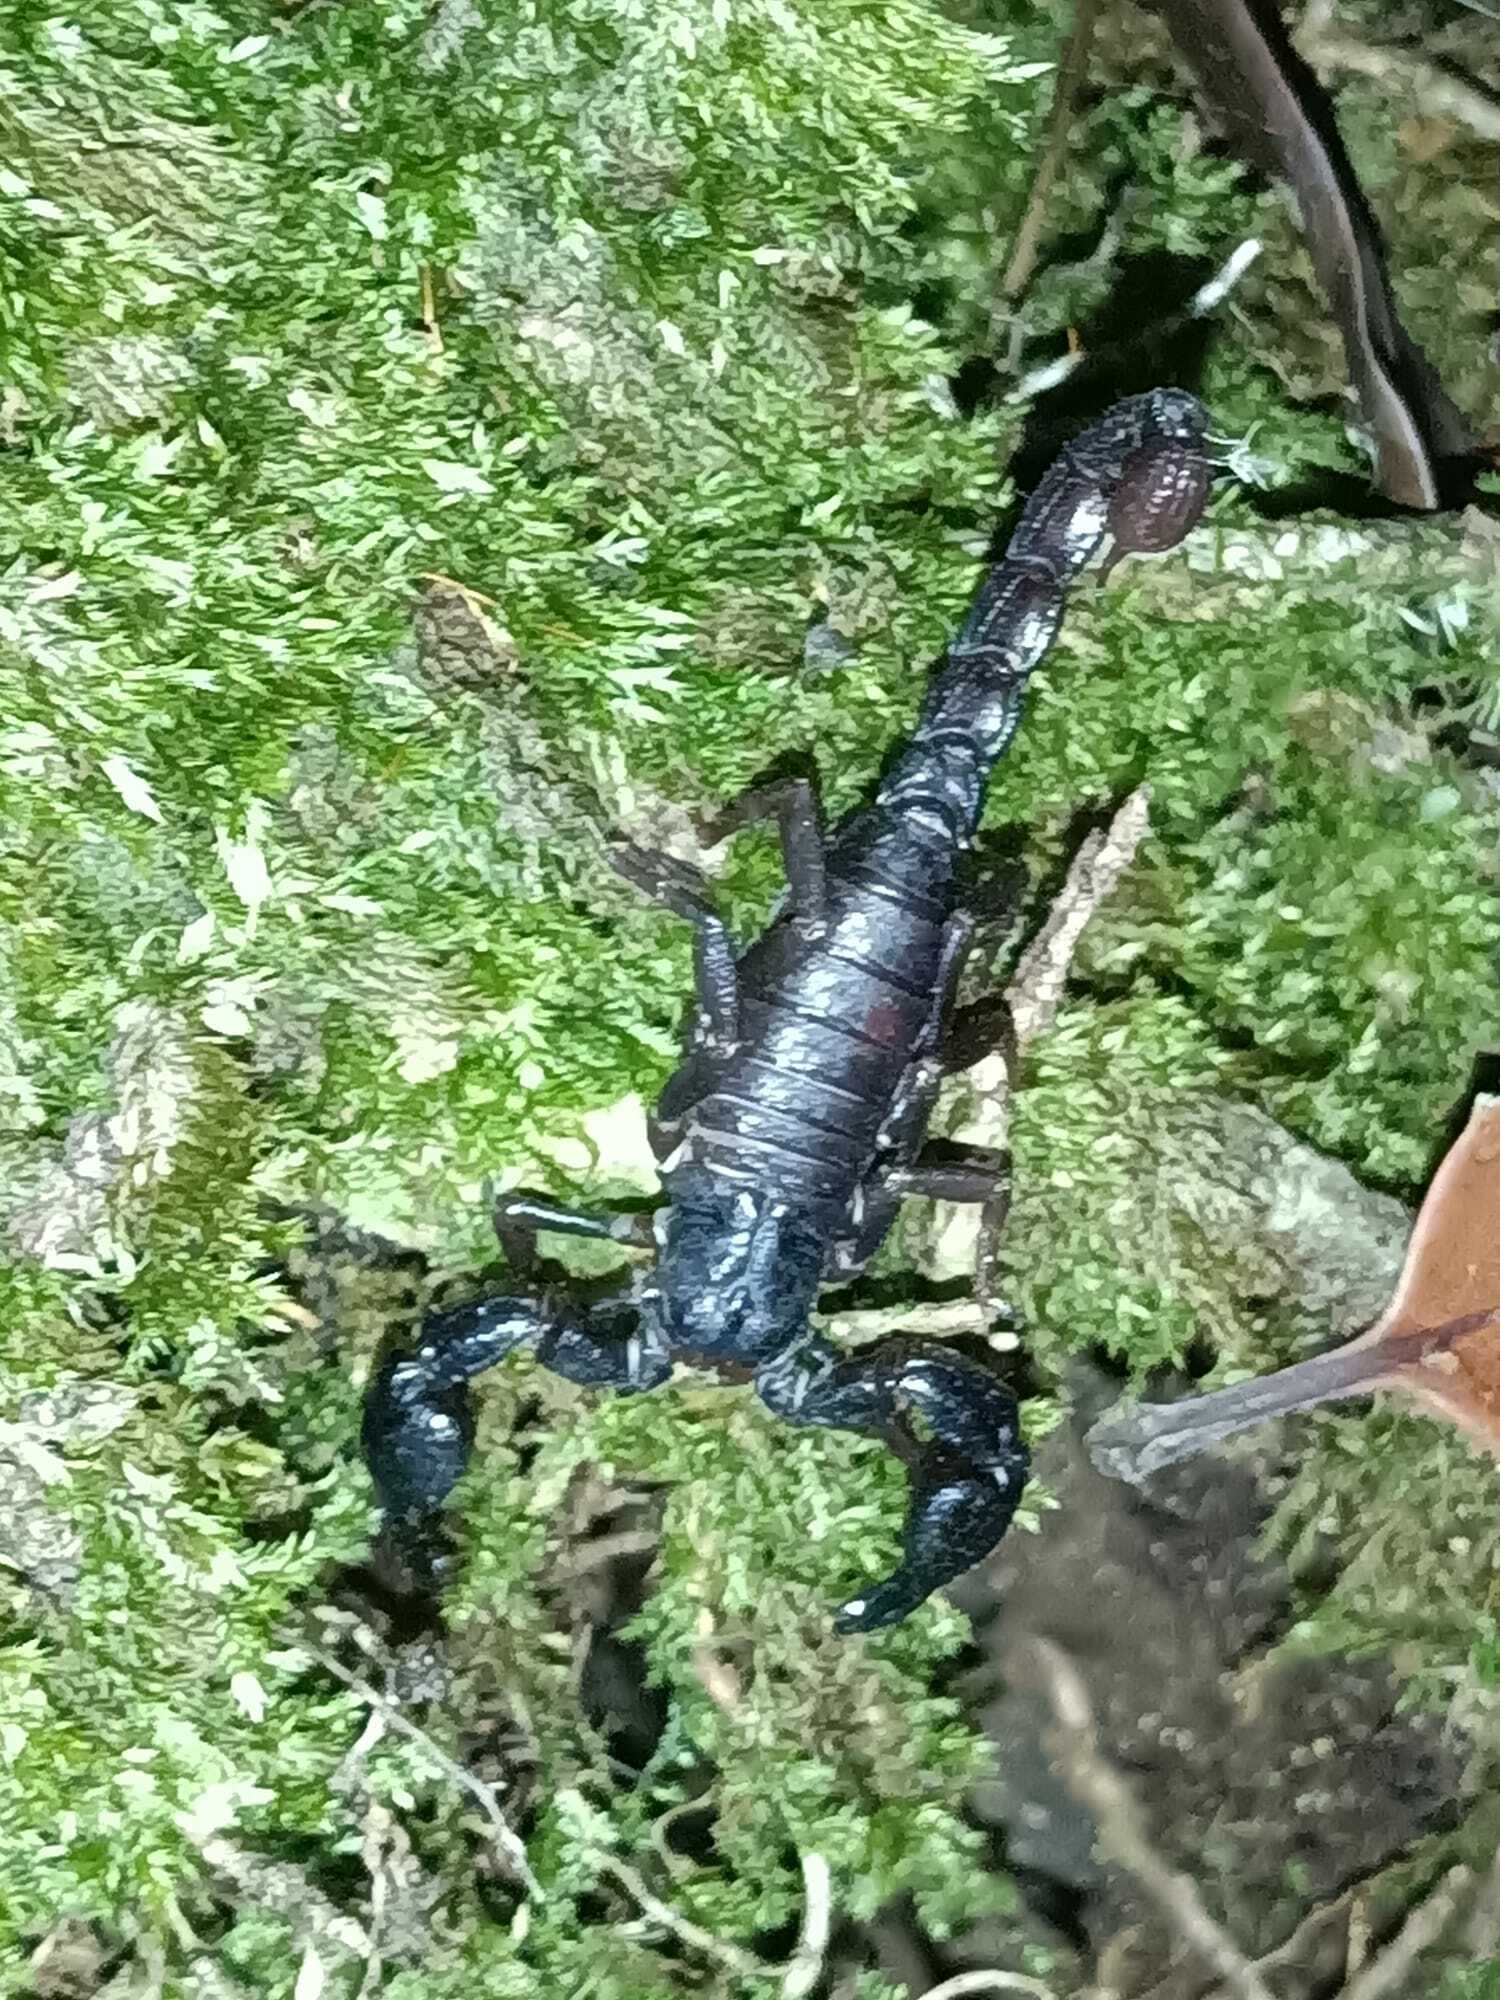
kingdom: Animalia
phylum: Arthropoda
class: Arachnida
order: Scorpiones
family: Chactidae
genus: Brotheas
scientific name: Brotheas granulatus
